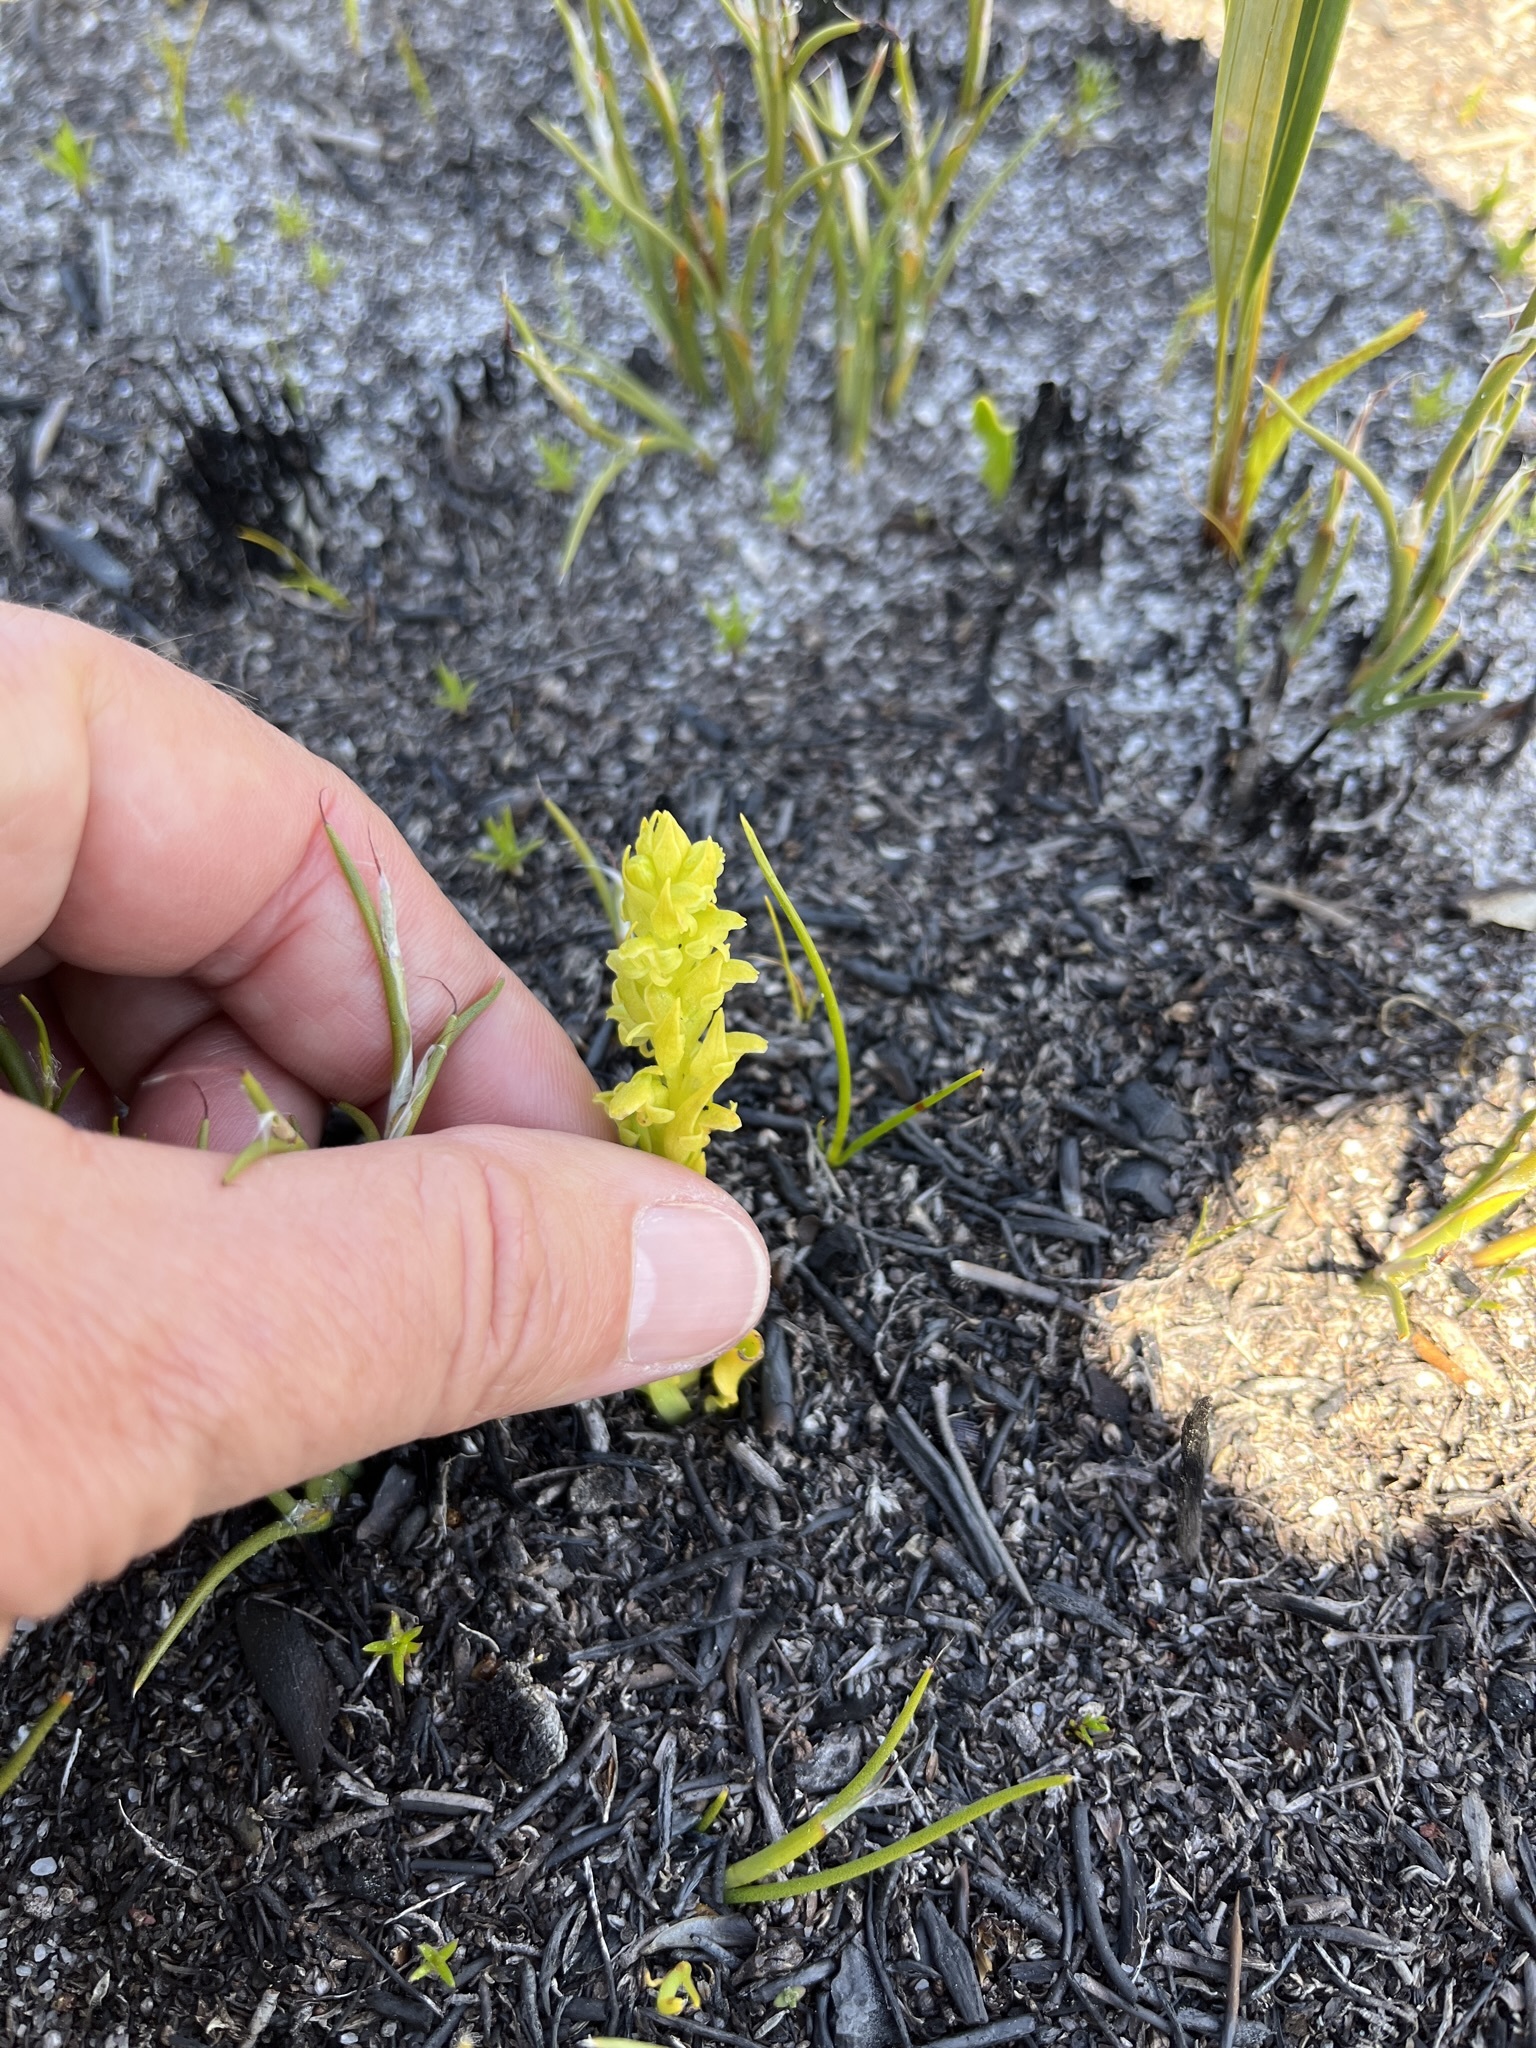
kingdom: Plantae
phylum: Tracheophyta
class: Liliopsida
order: Asparagales
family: Orchidaceae
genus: Disa
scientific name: Disa cylindrica
